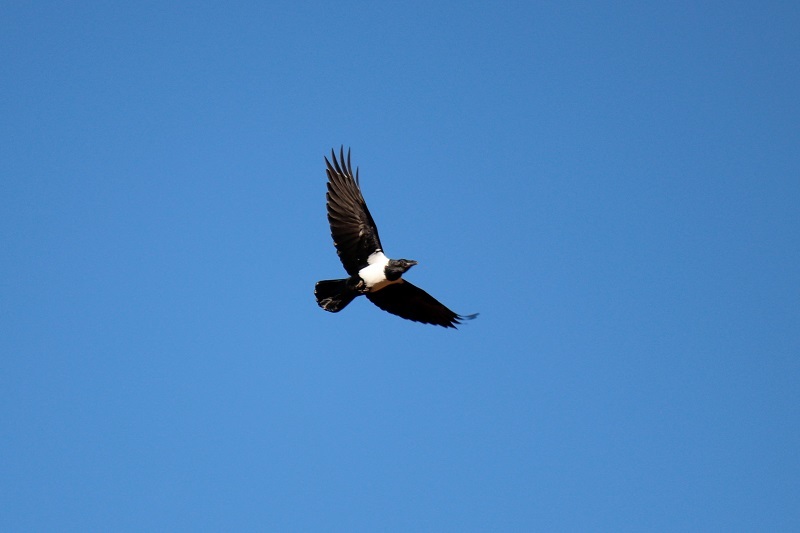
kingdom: Animalia
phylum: Chordata
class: Aves
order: Passeriformes
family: Corvidae
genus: Corvus
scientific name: Corvus albus
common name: Pied crow
